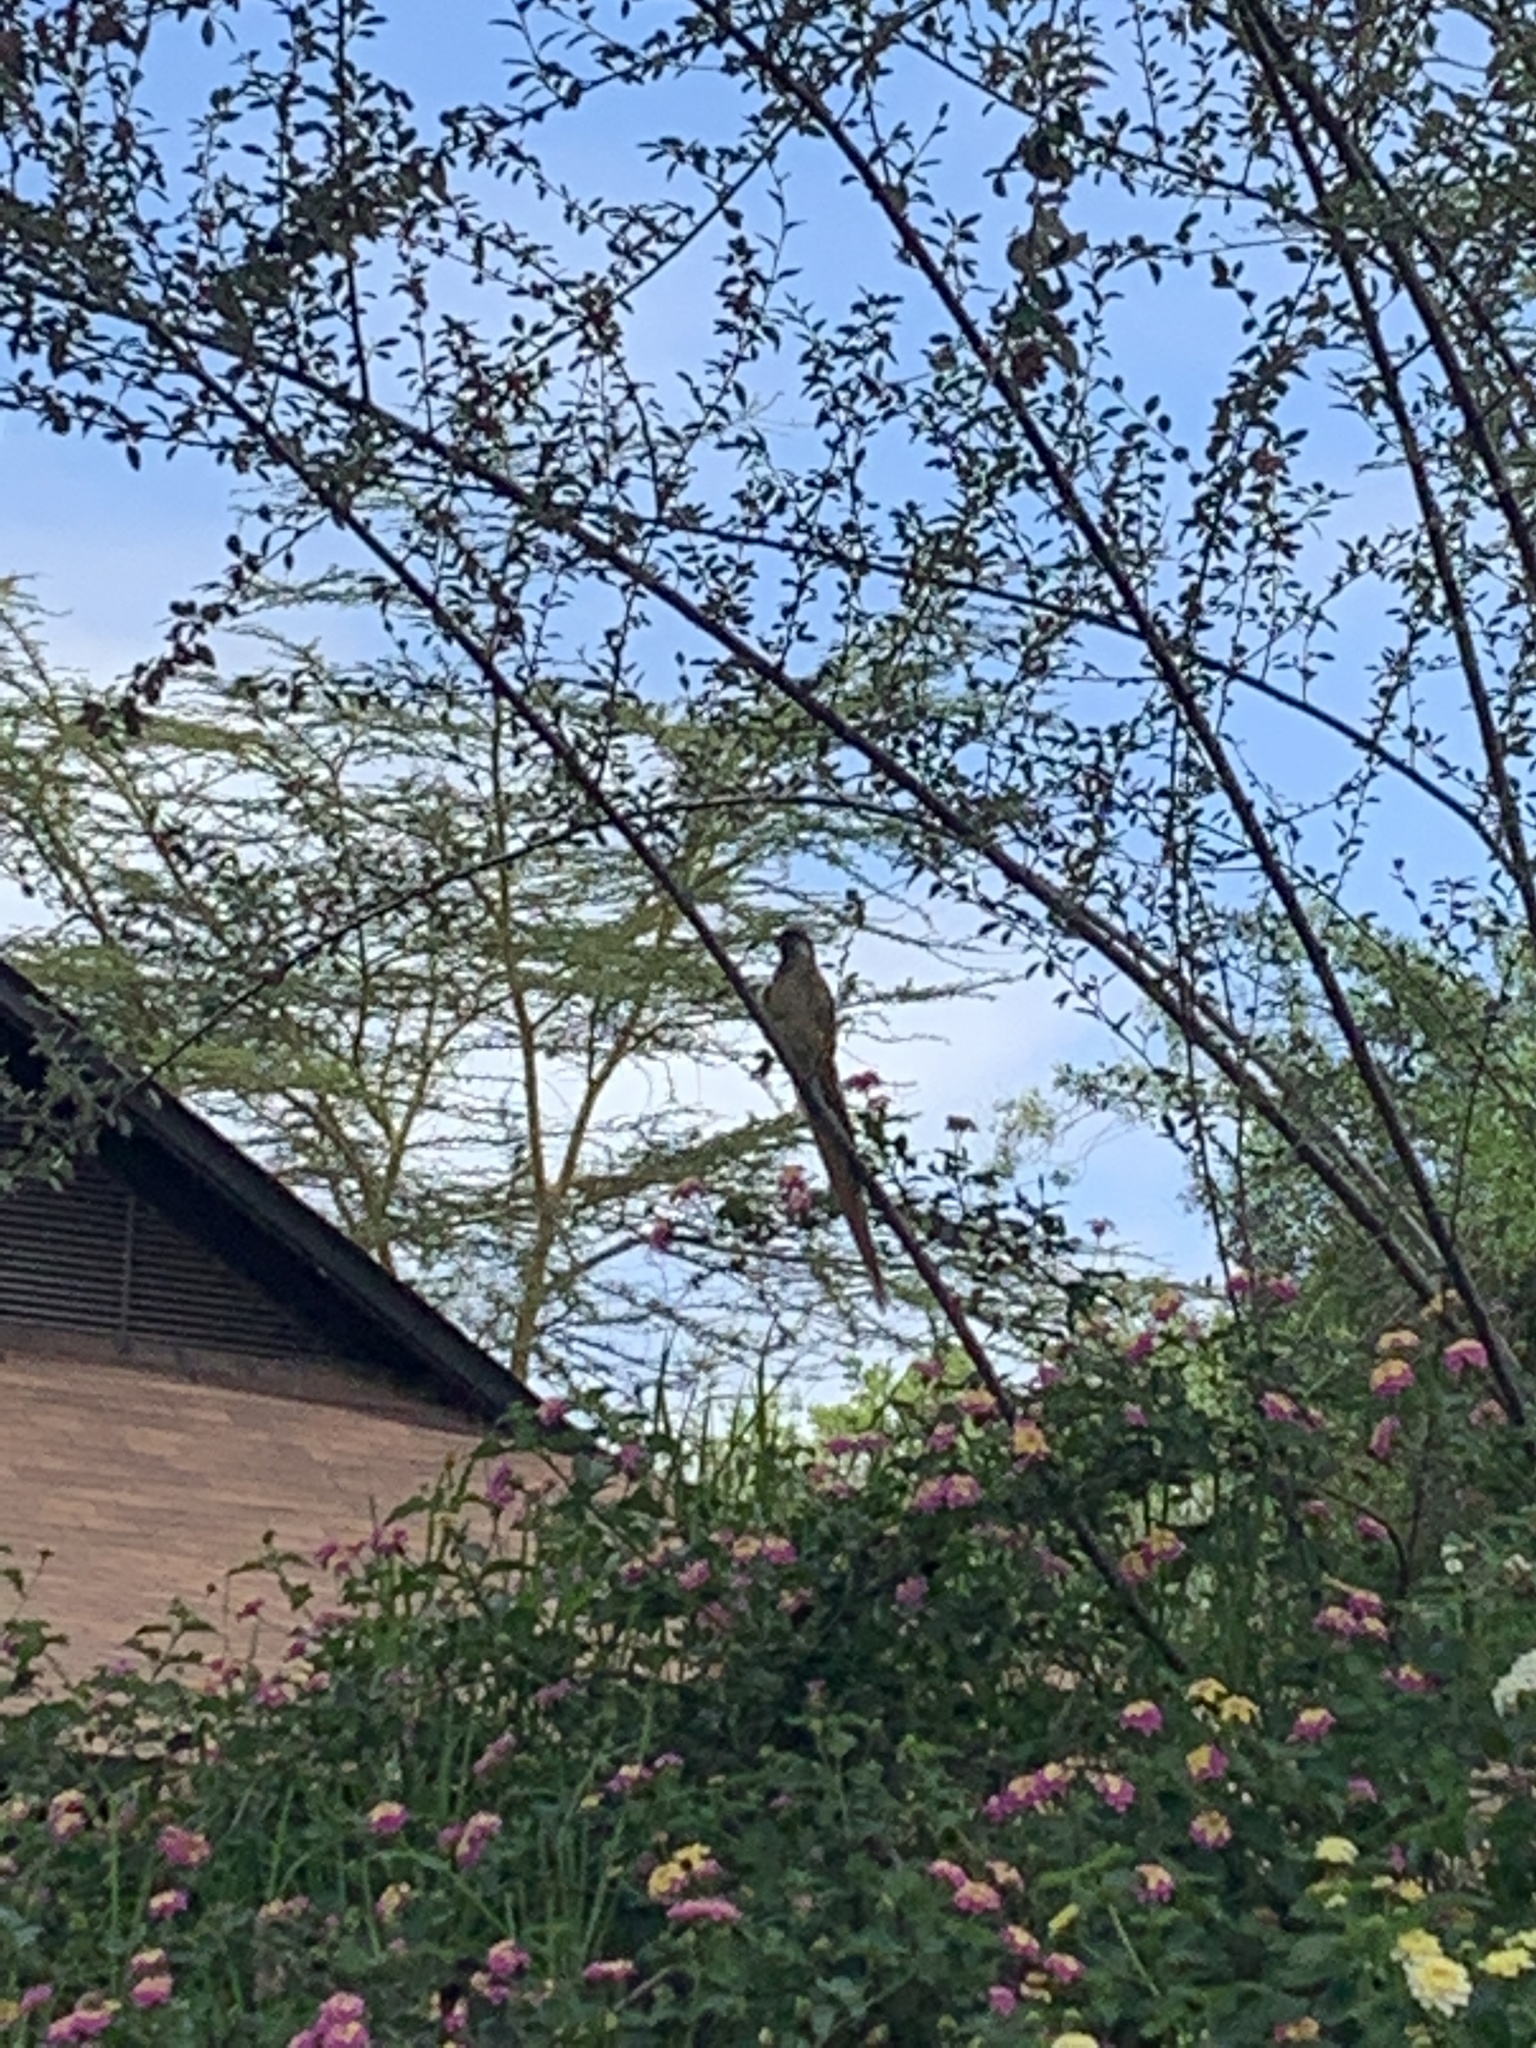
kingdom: Animalia
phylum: Chordata
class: Aves
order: Coliiformes
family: Coliidae
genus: Colius
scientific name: Colius striatus
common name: Speckled mousebird
